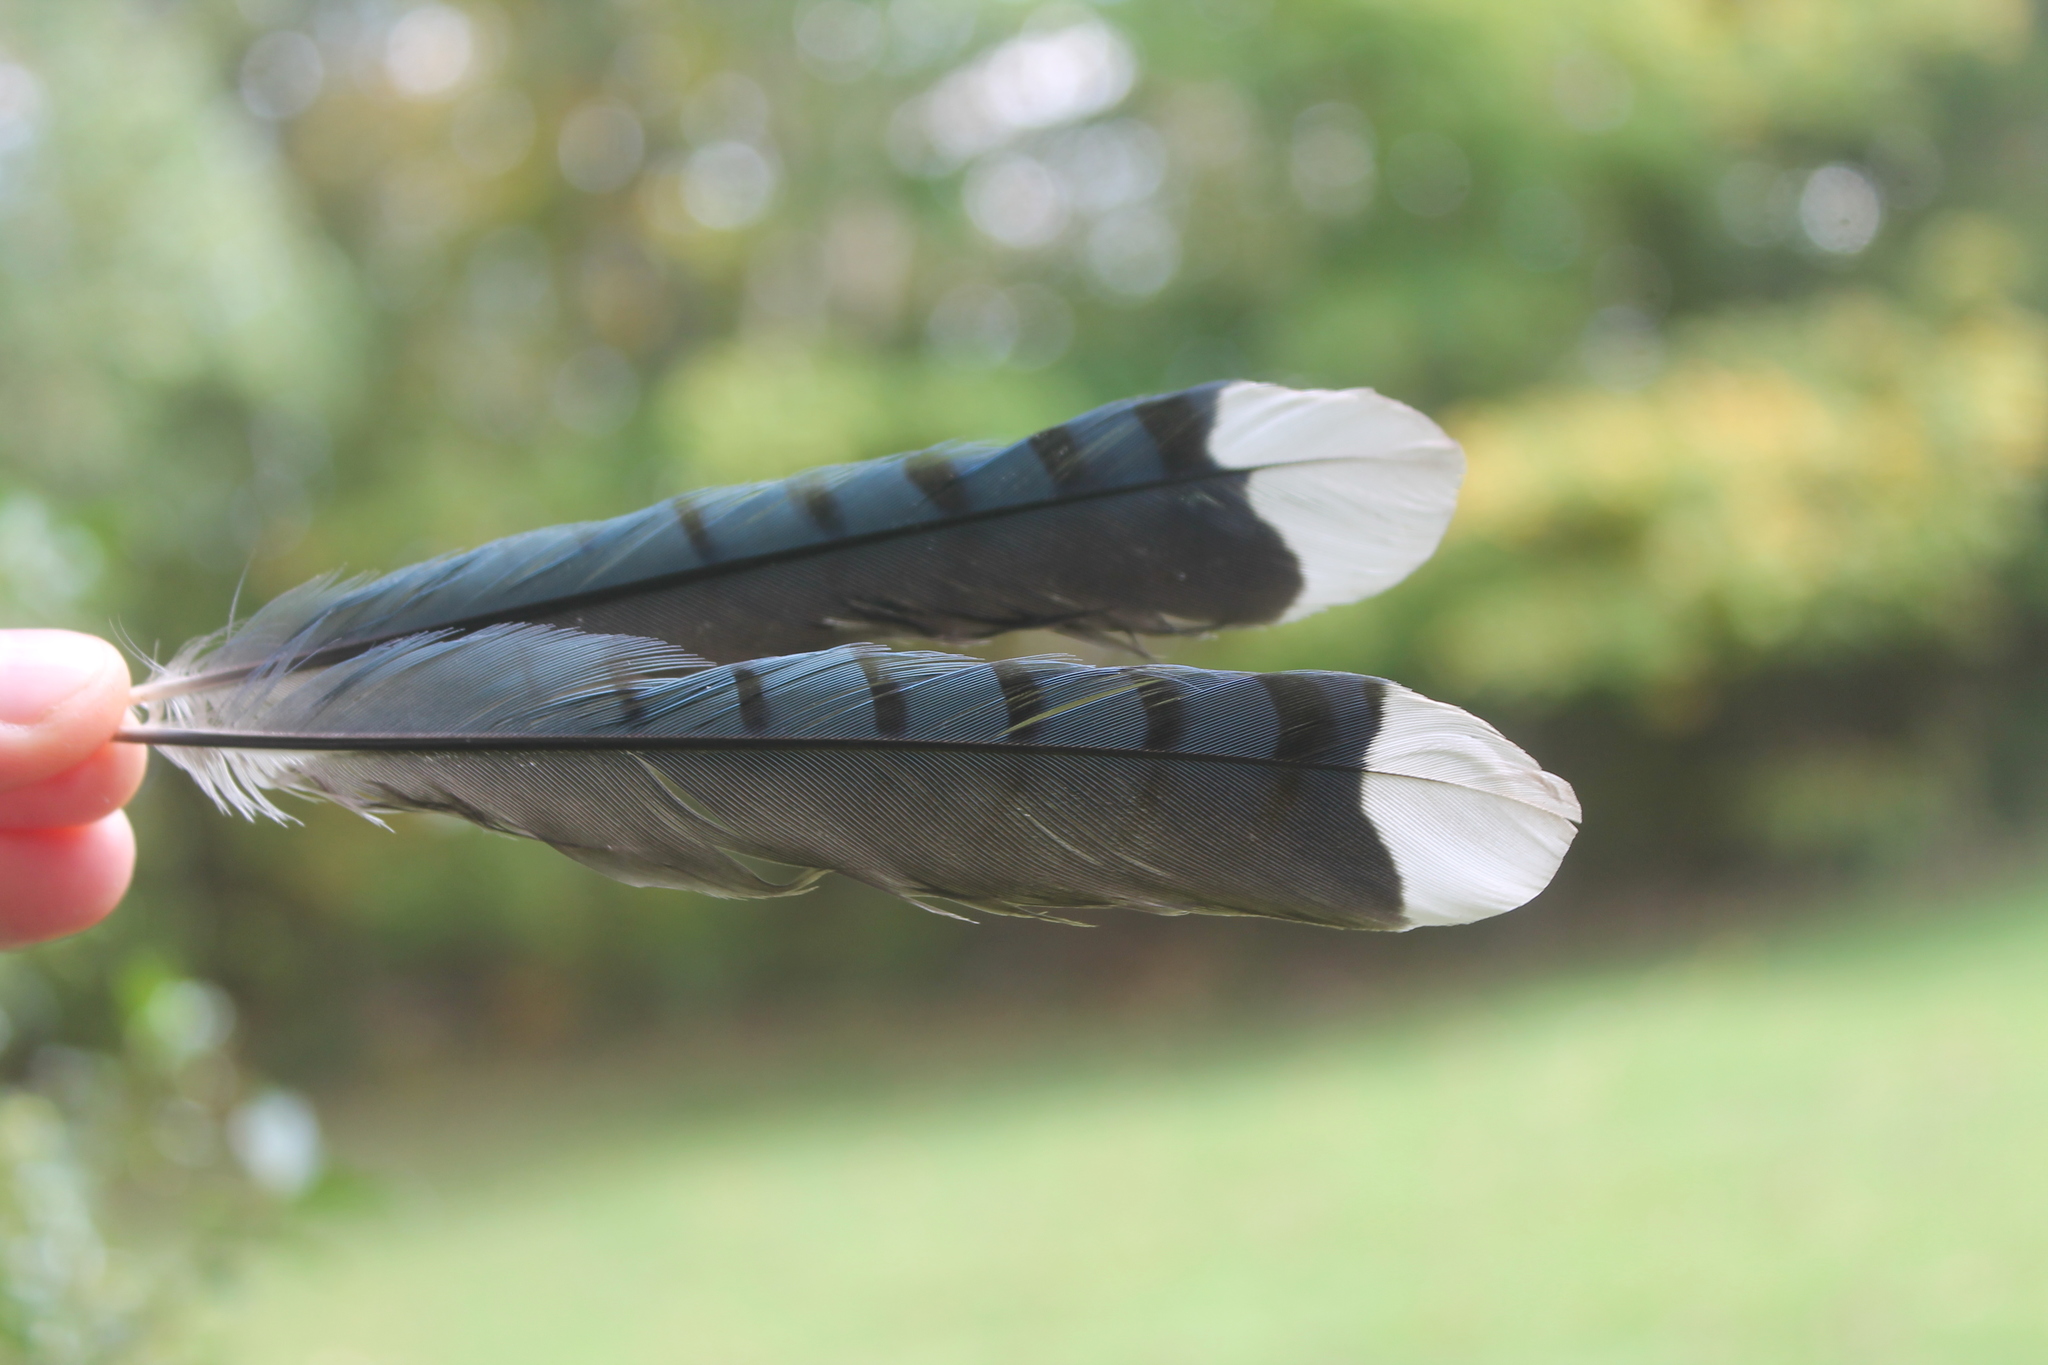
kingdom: Animalia
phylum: Chordata
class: Aves
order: Passeriformes
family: Corvidae
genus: Cyanocitta
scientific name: Cyanocitta cristata
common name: Blue jay
